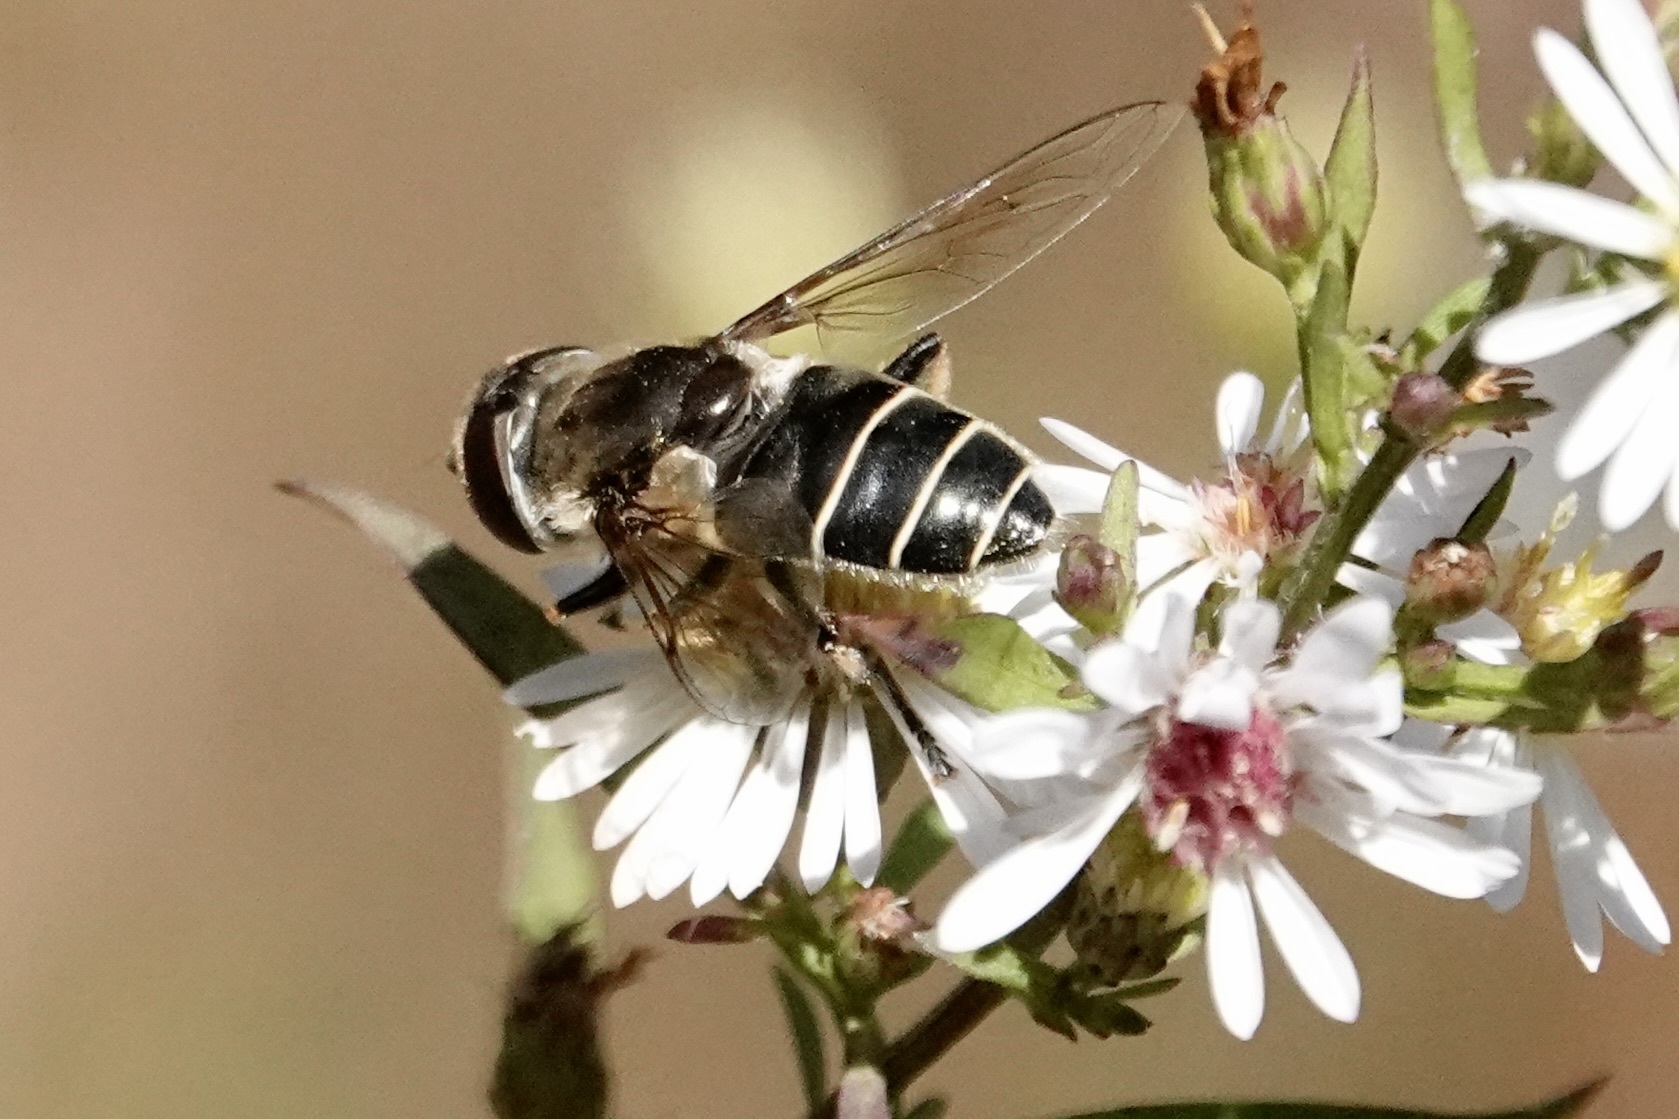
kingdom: Animalia
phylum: Arthropoda
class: Insecta
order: Diptera
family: Syrphidae
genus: Eristalis
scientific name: Eristalis dimidiata
